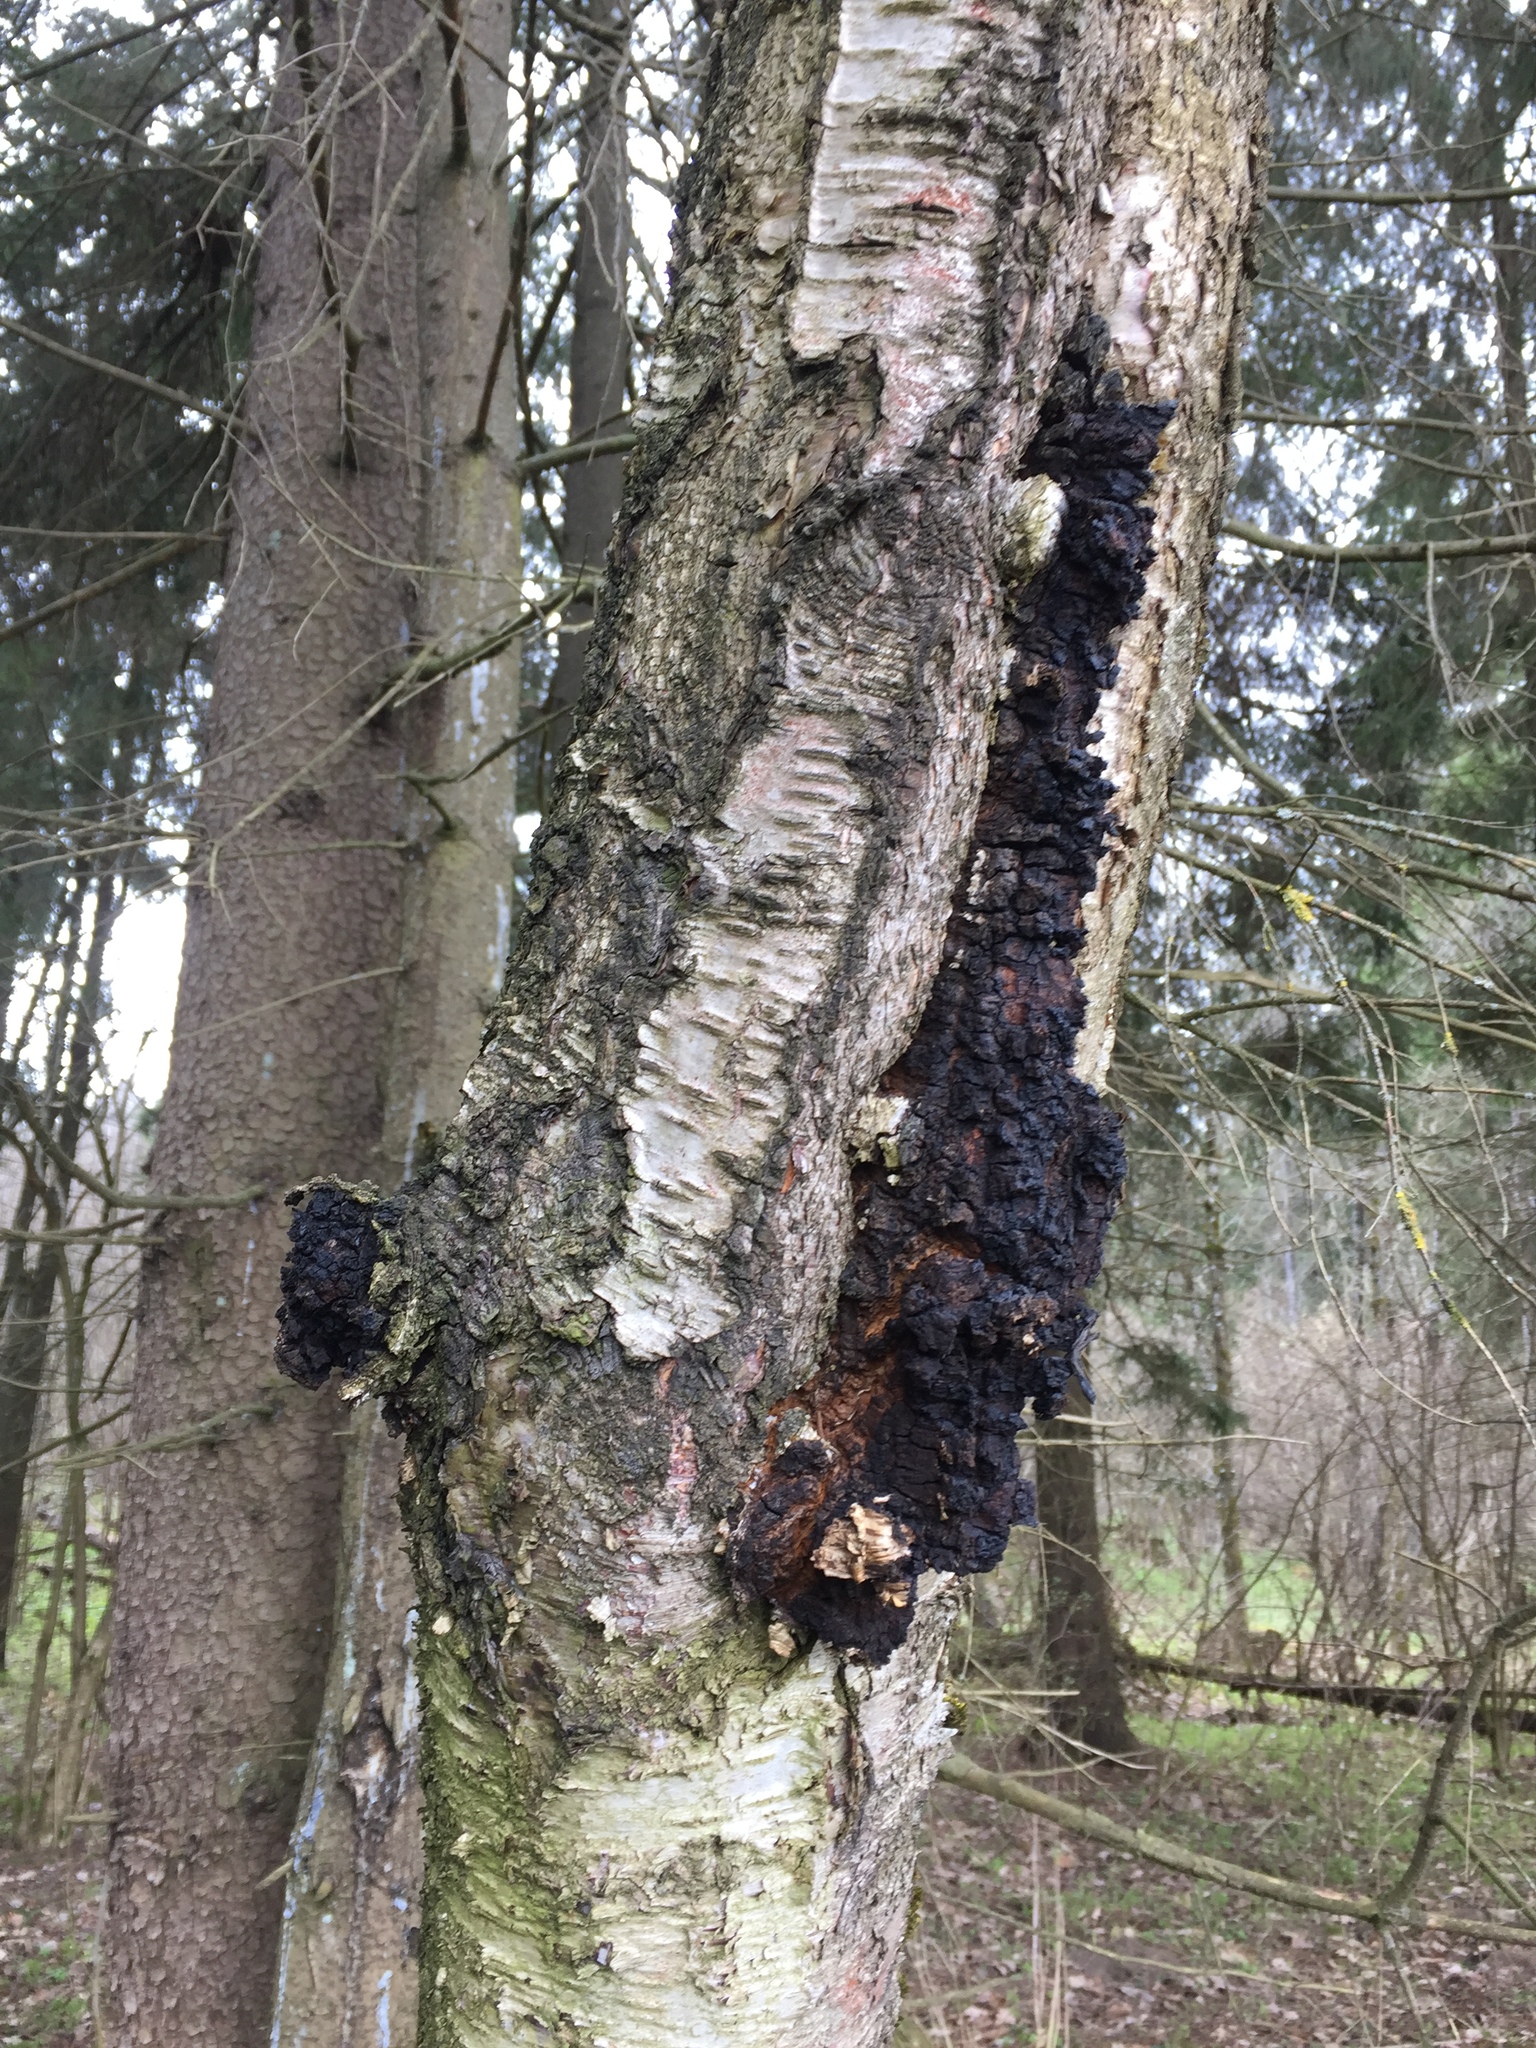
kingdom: Fungi
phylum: Basidiomycota
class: Agaricomycetes
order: Hymenochaetales
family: Hymenochaetaceae
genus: Inonotus
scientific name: Inonotus obliquus
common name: Chaga
